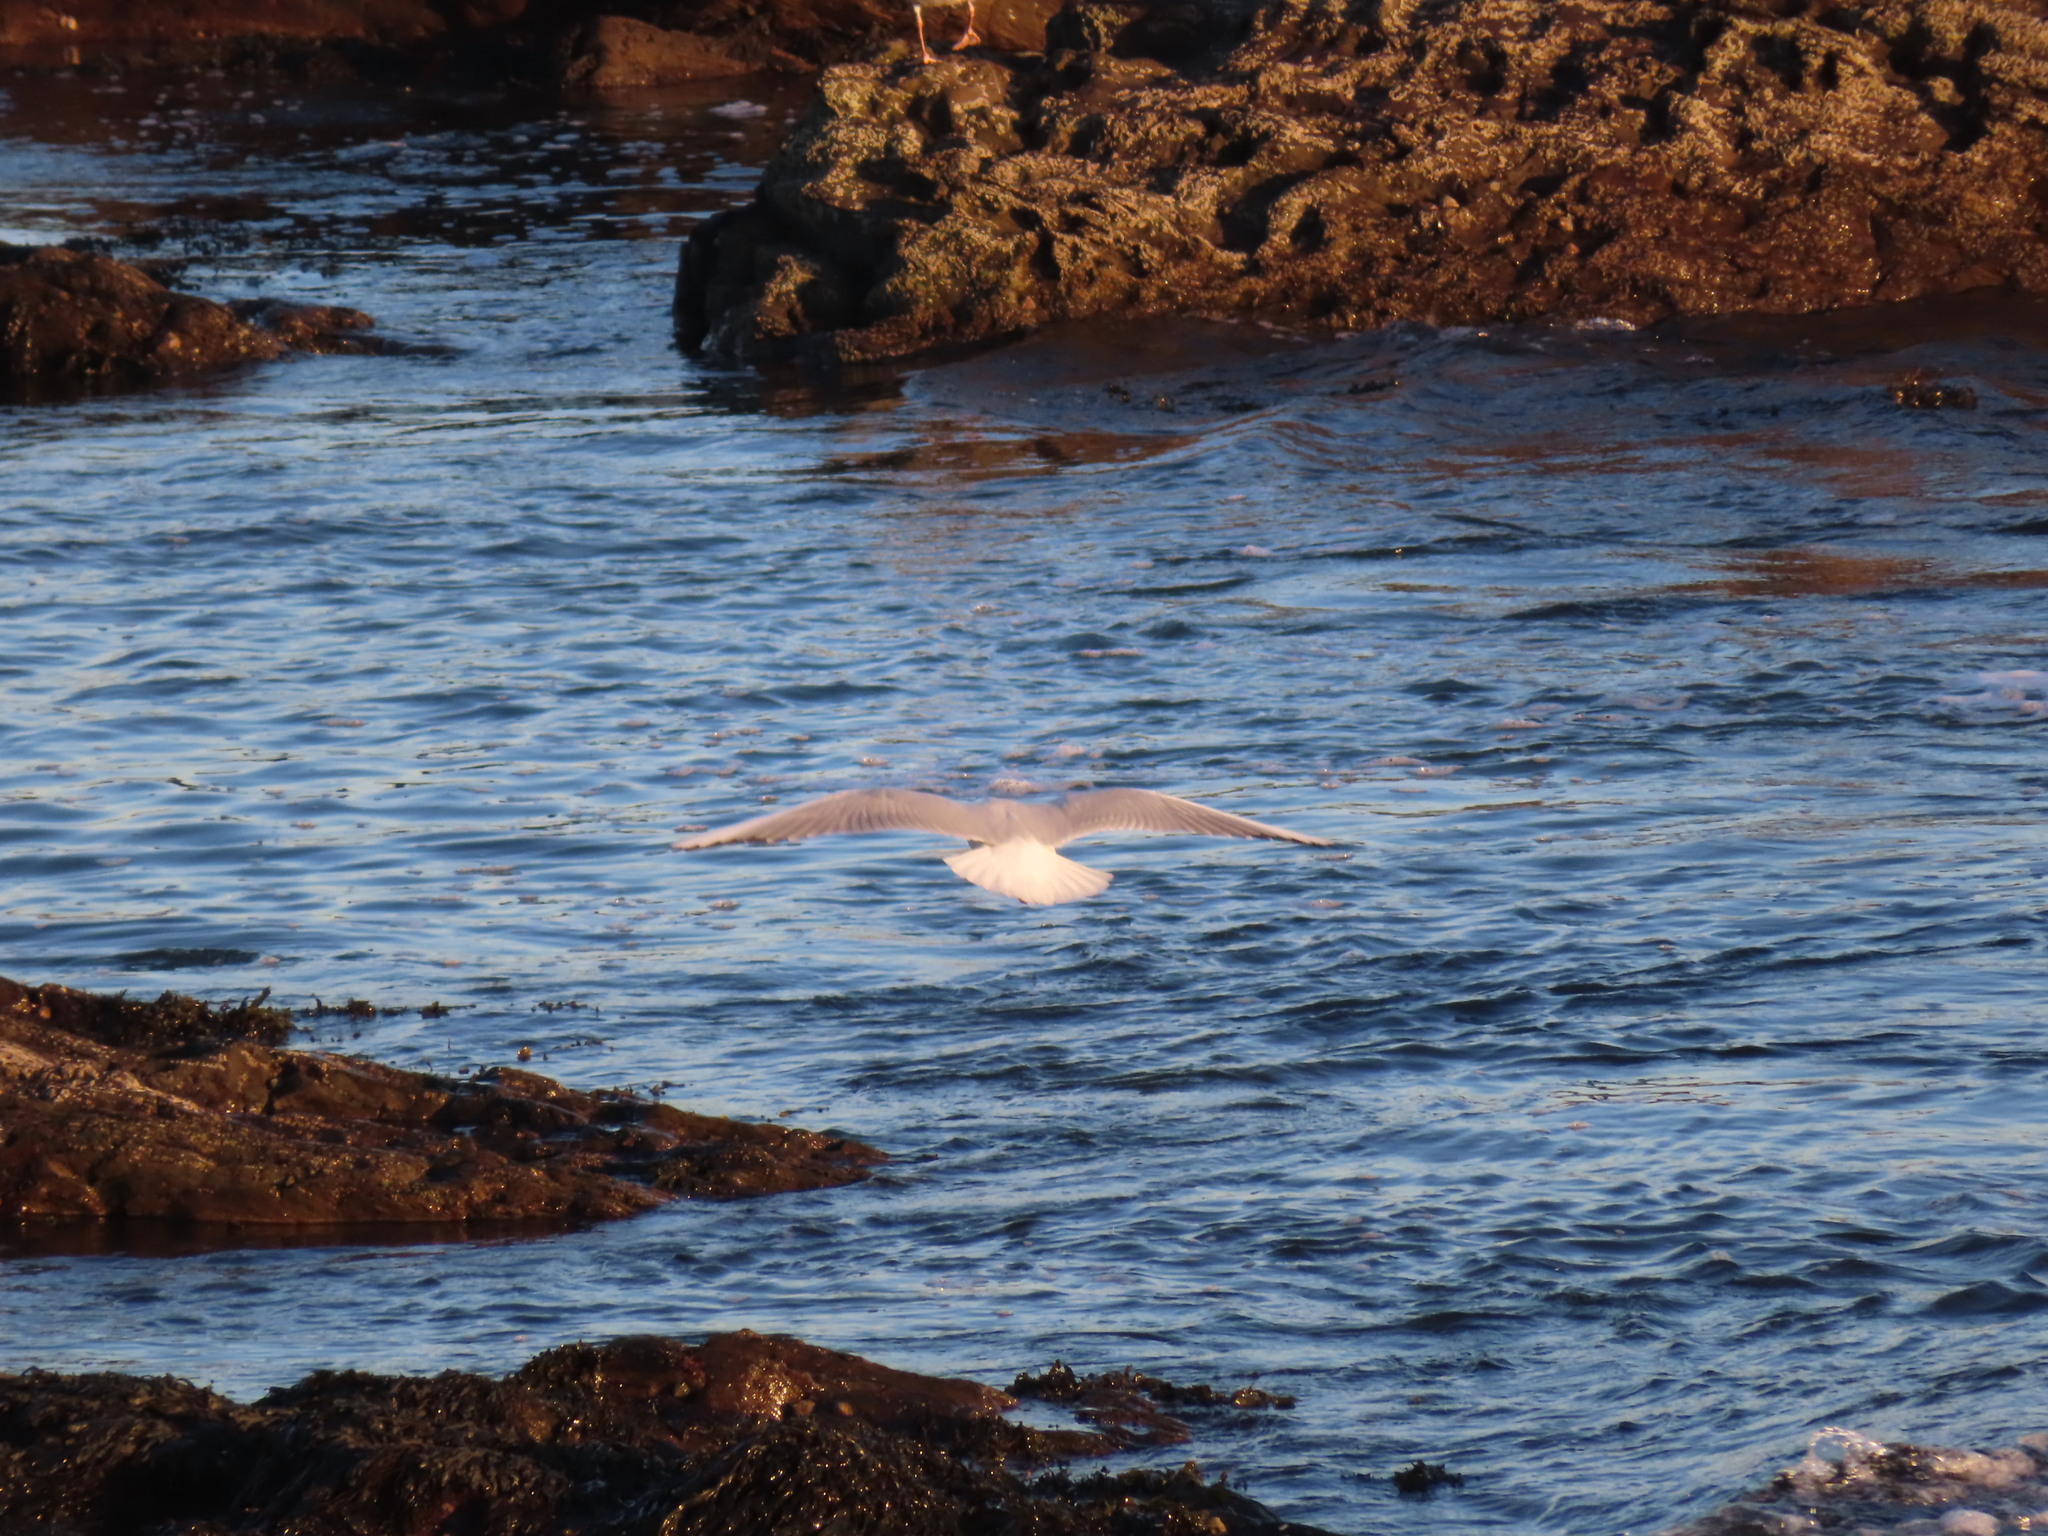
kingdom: Animalia
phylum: Chordata
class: Aves
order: Charadriiformes
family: Laridae
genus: Chroicocephalus
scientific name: Chroicocephalus ridibundus
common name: Black-headed gull
